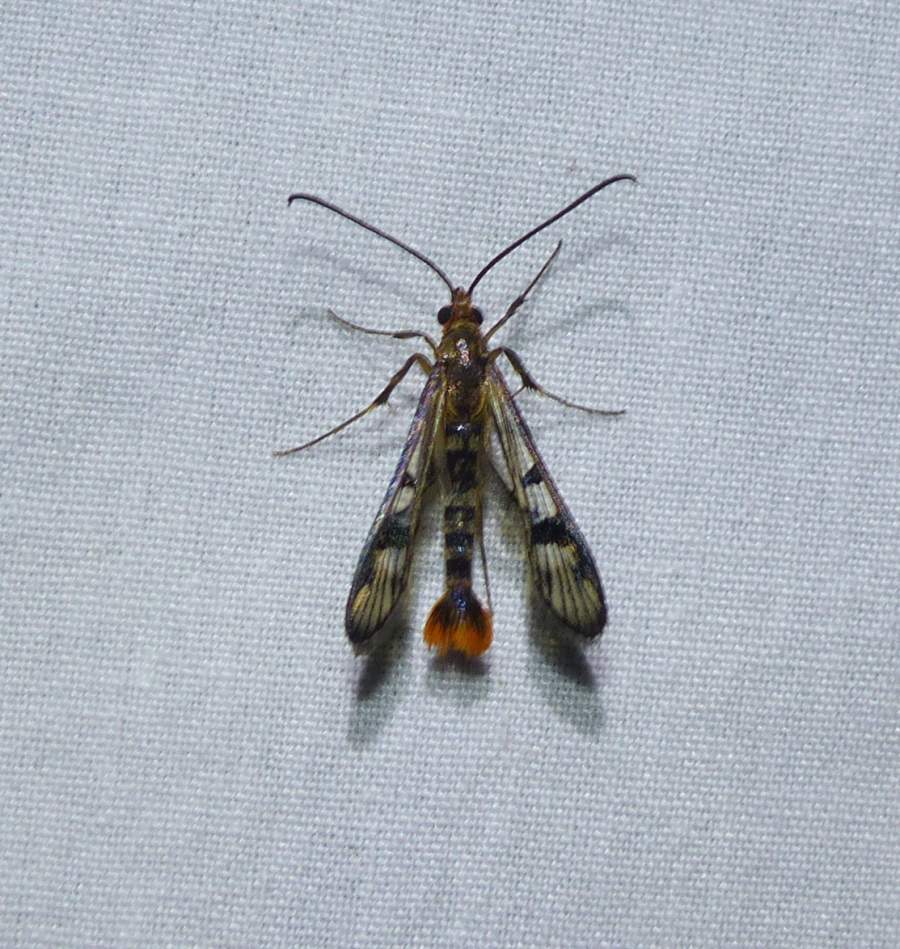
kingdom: Animalia
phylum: Arthropoda
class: Insecta
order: Lepidoptera
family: Sesiidae
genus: Synanthedon
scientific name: Synanthedon acerni
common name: Maple callus borer moth
